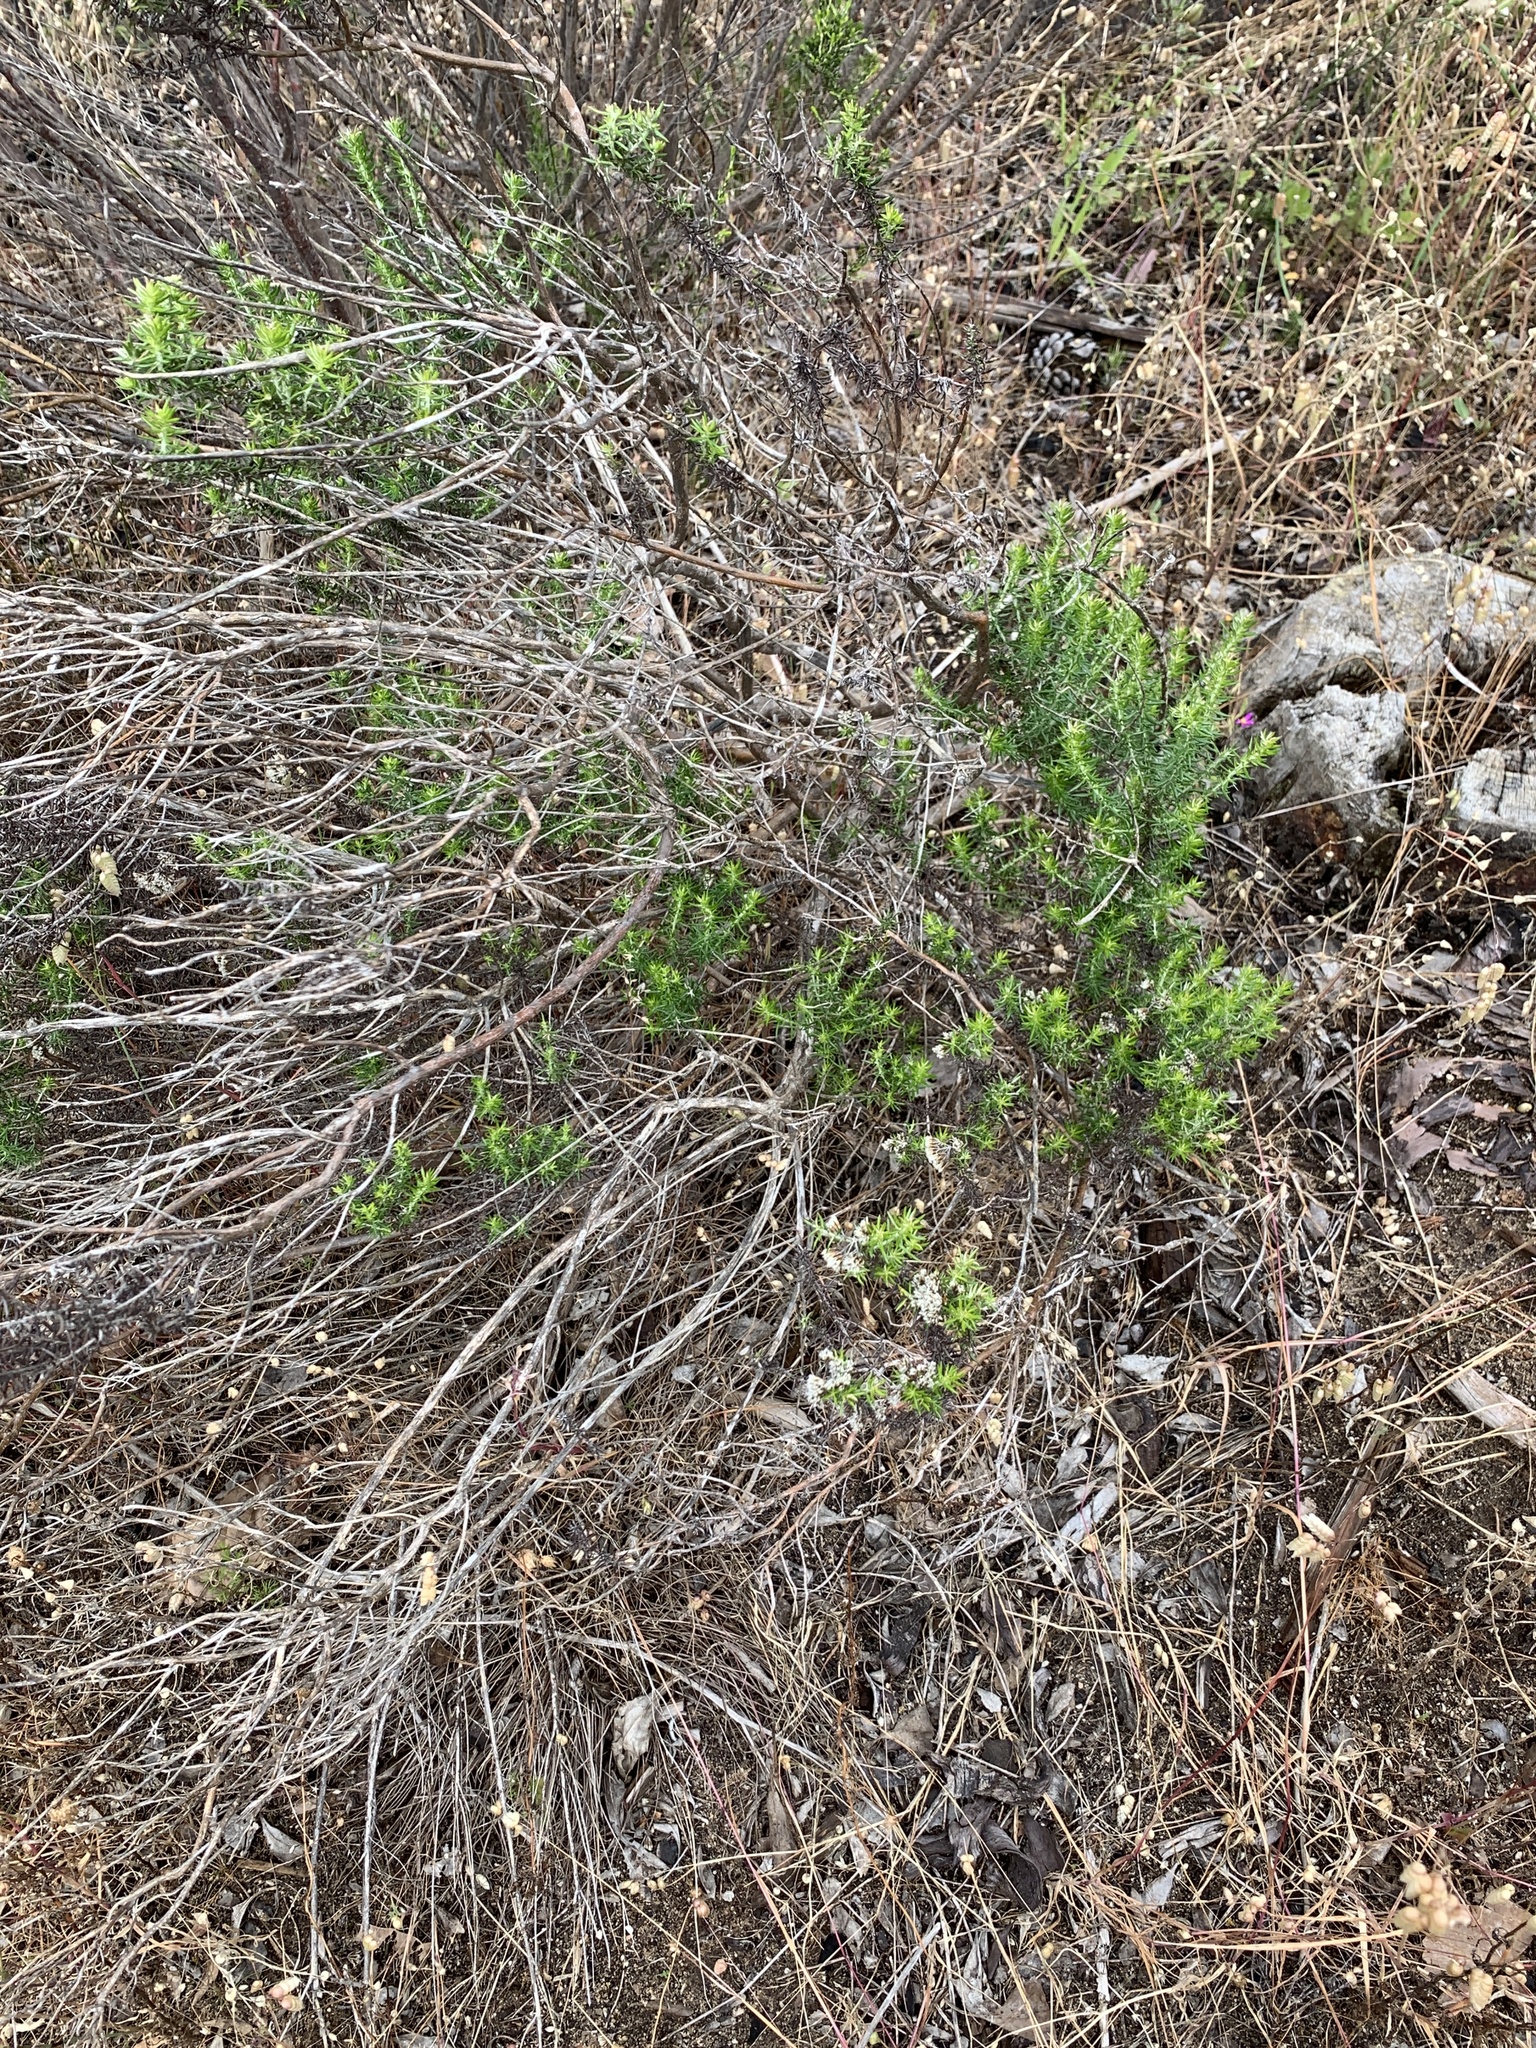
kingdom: Plantae
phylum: Tracheophyta
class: Magnoliopsida
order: Asterales
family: Asteraceae
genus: Metalasia
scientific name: Metalasia densa
